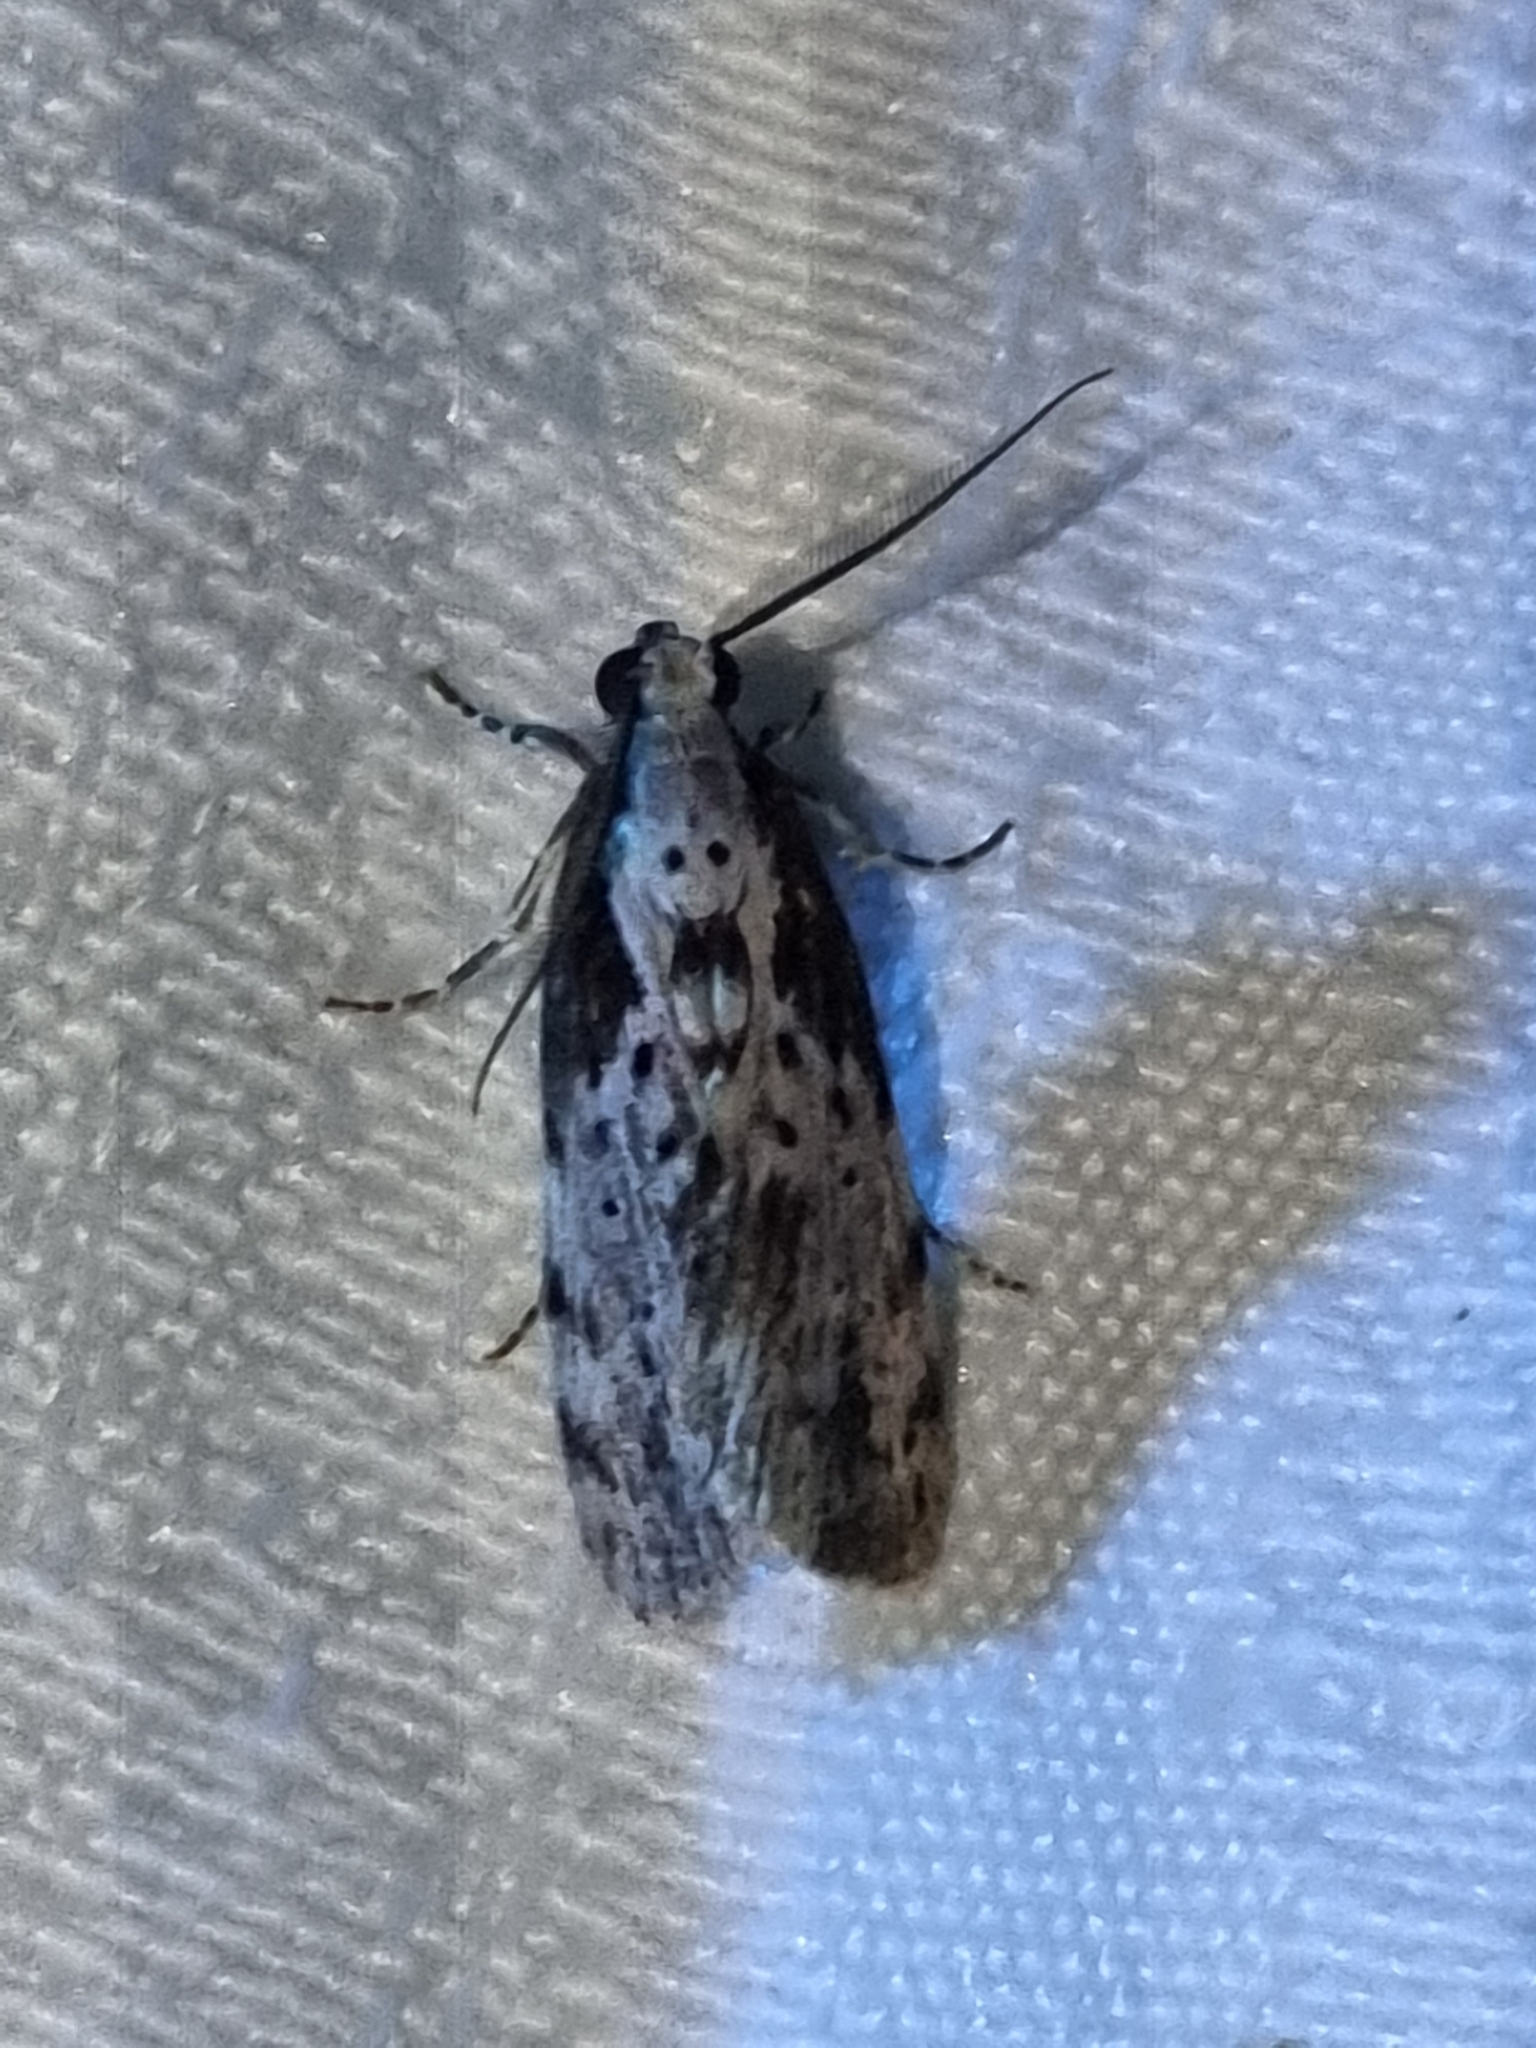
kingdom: Animalia
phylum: Arthropoda
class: Insecta
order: Lepidoptera
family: Erebidae
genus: Digama
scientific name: Digama Sommeria marmorea
